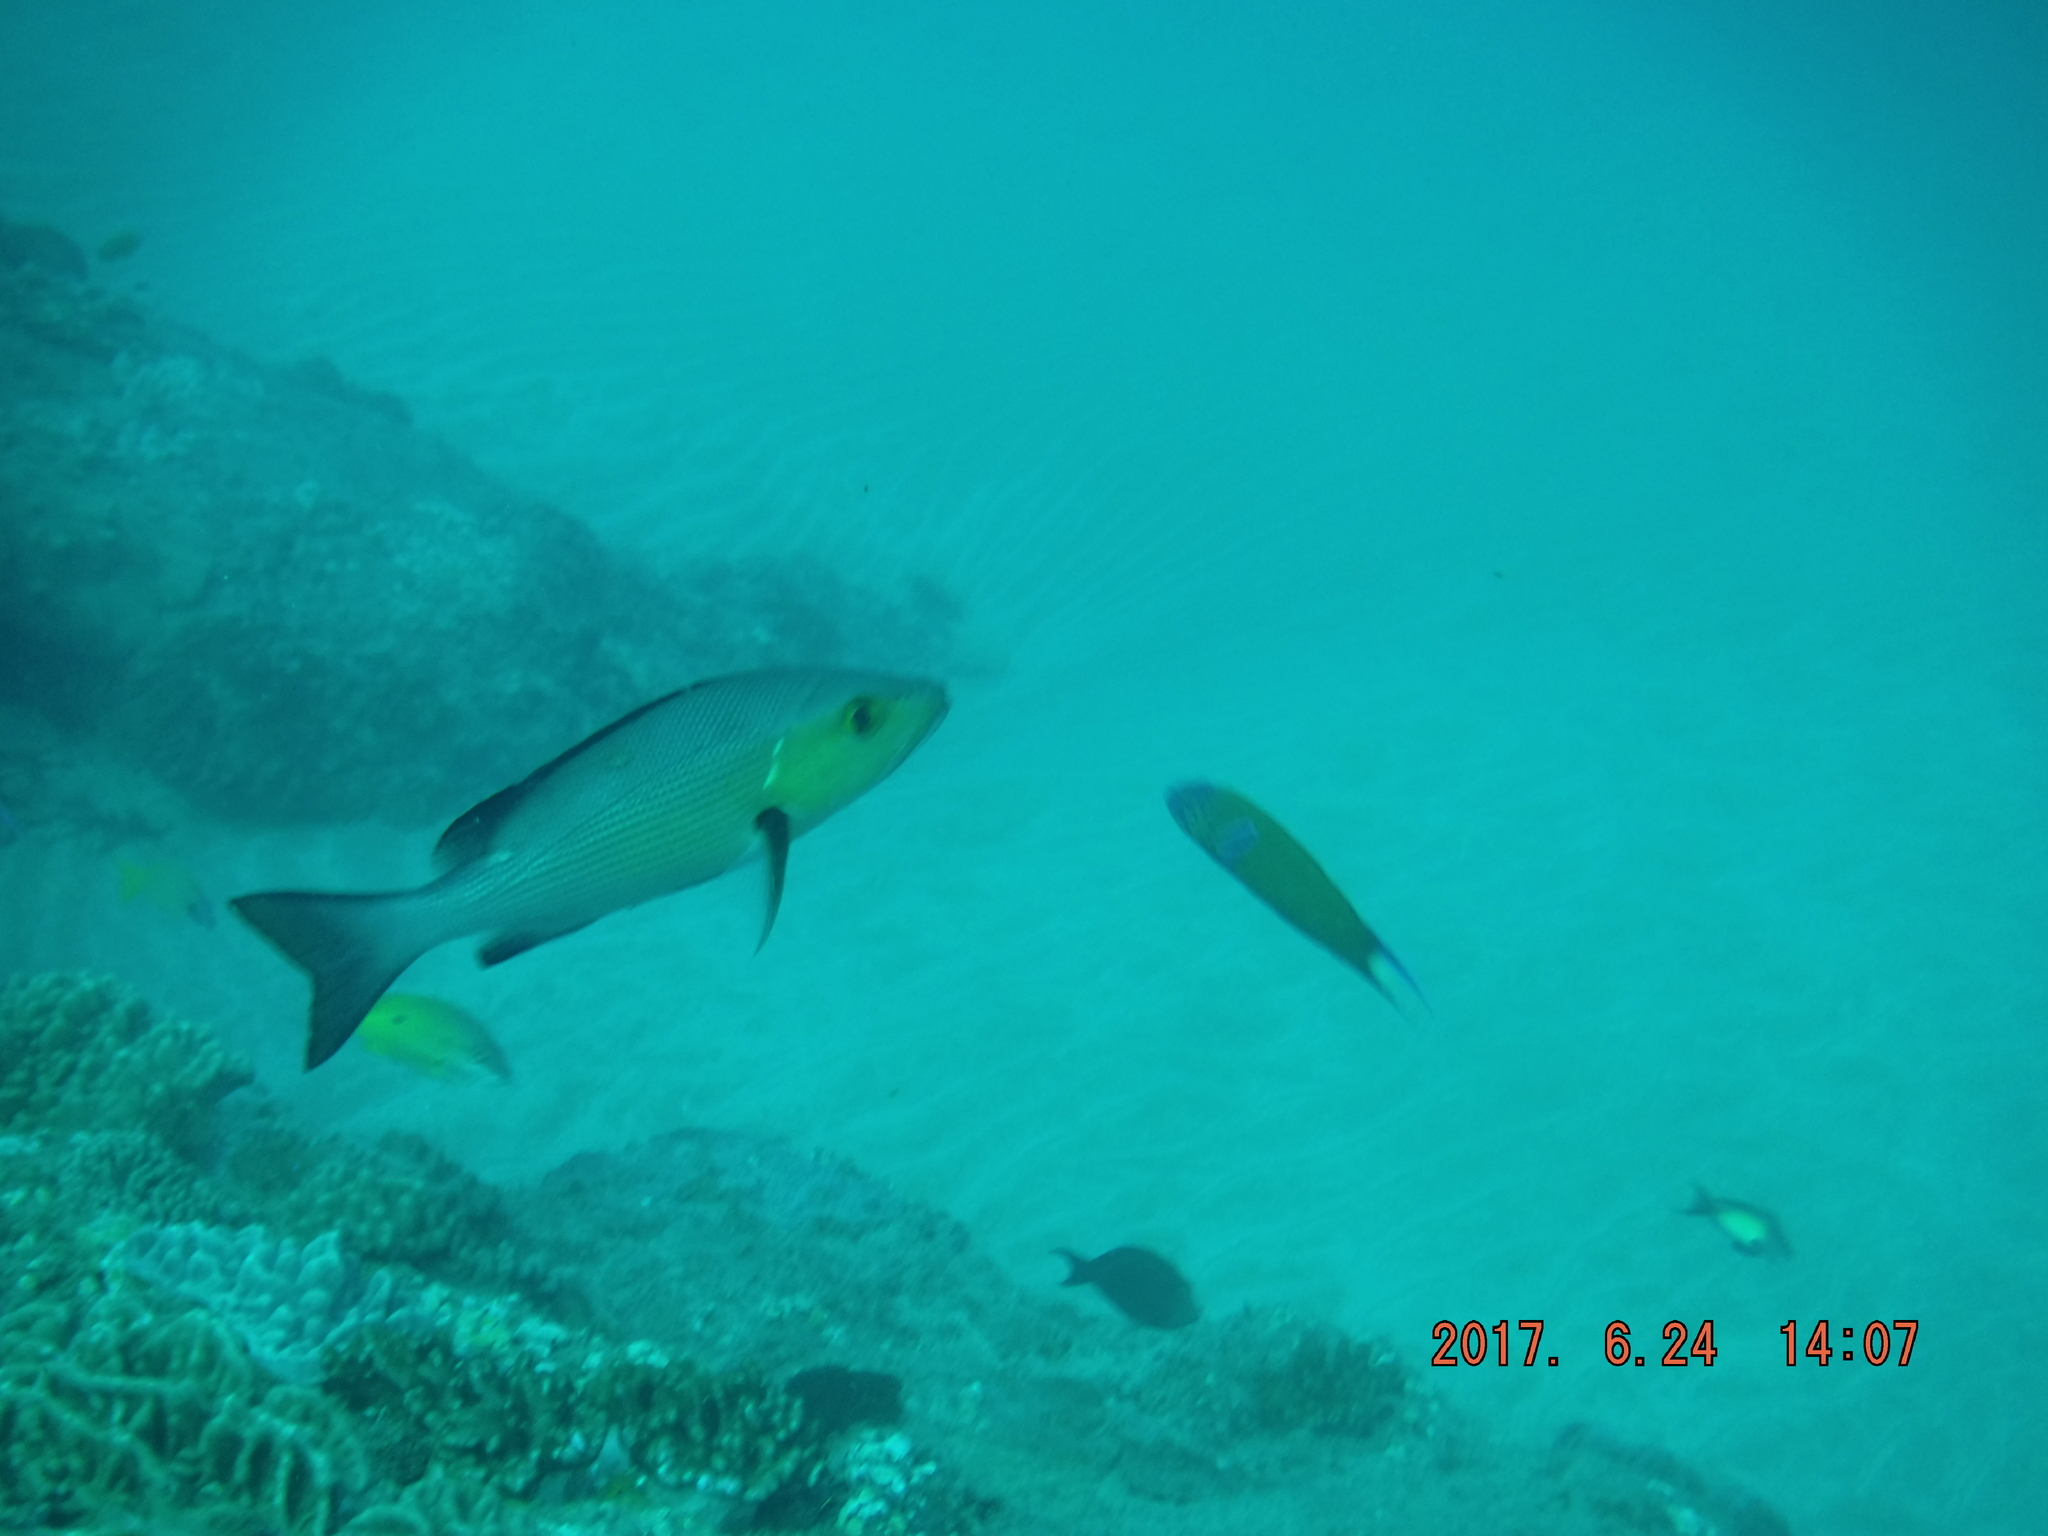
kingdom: Animalia
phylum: Chordata
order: Perciformes
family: Lutjanidae
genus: Lutjanus
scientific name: Lutjanus bohar
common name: Red bass
